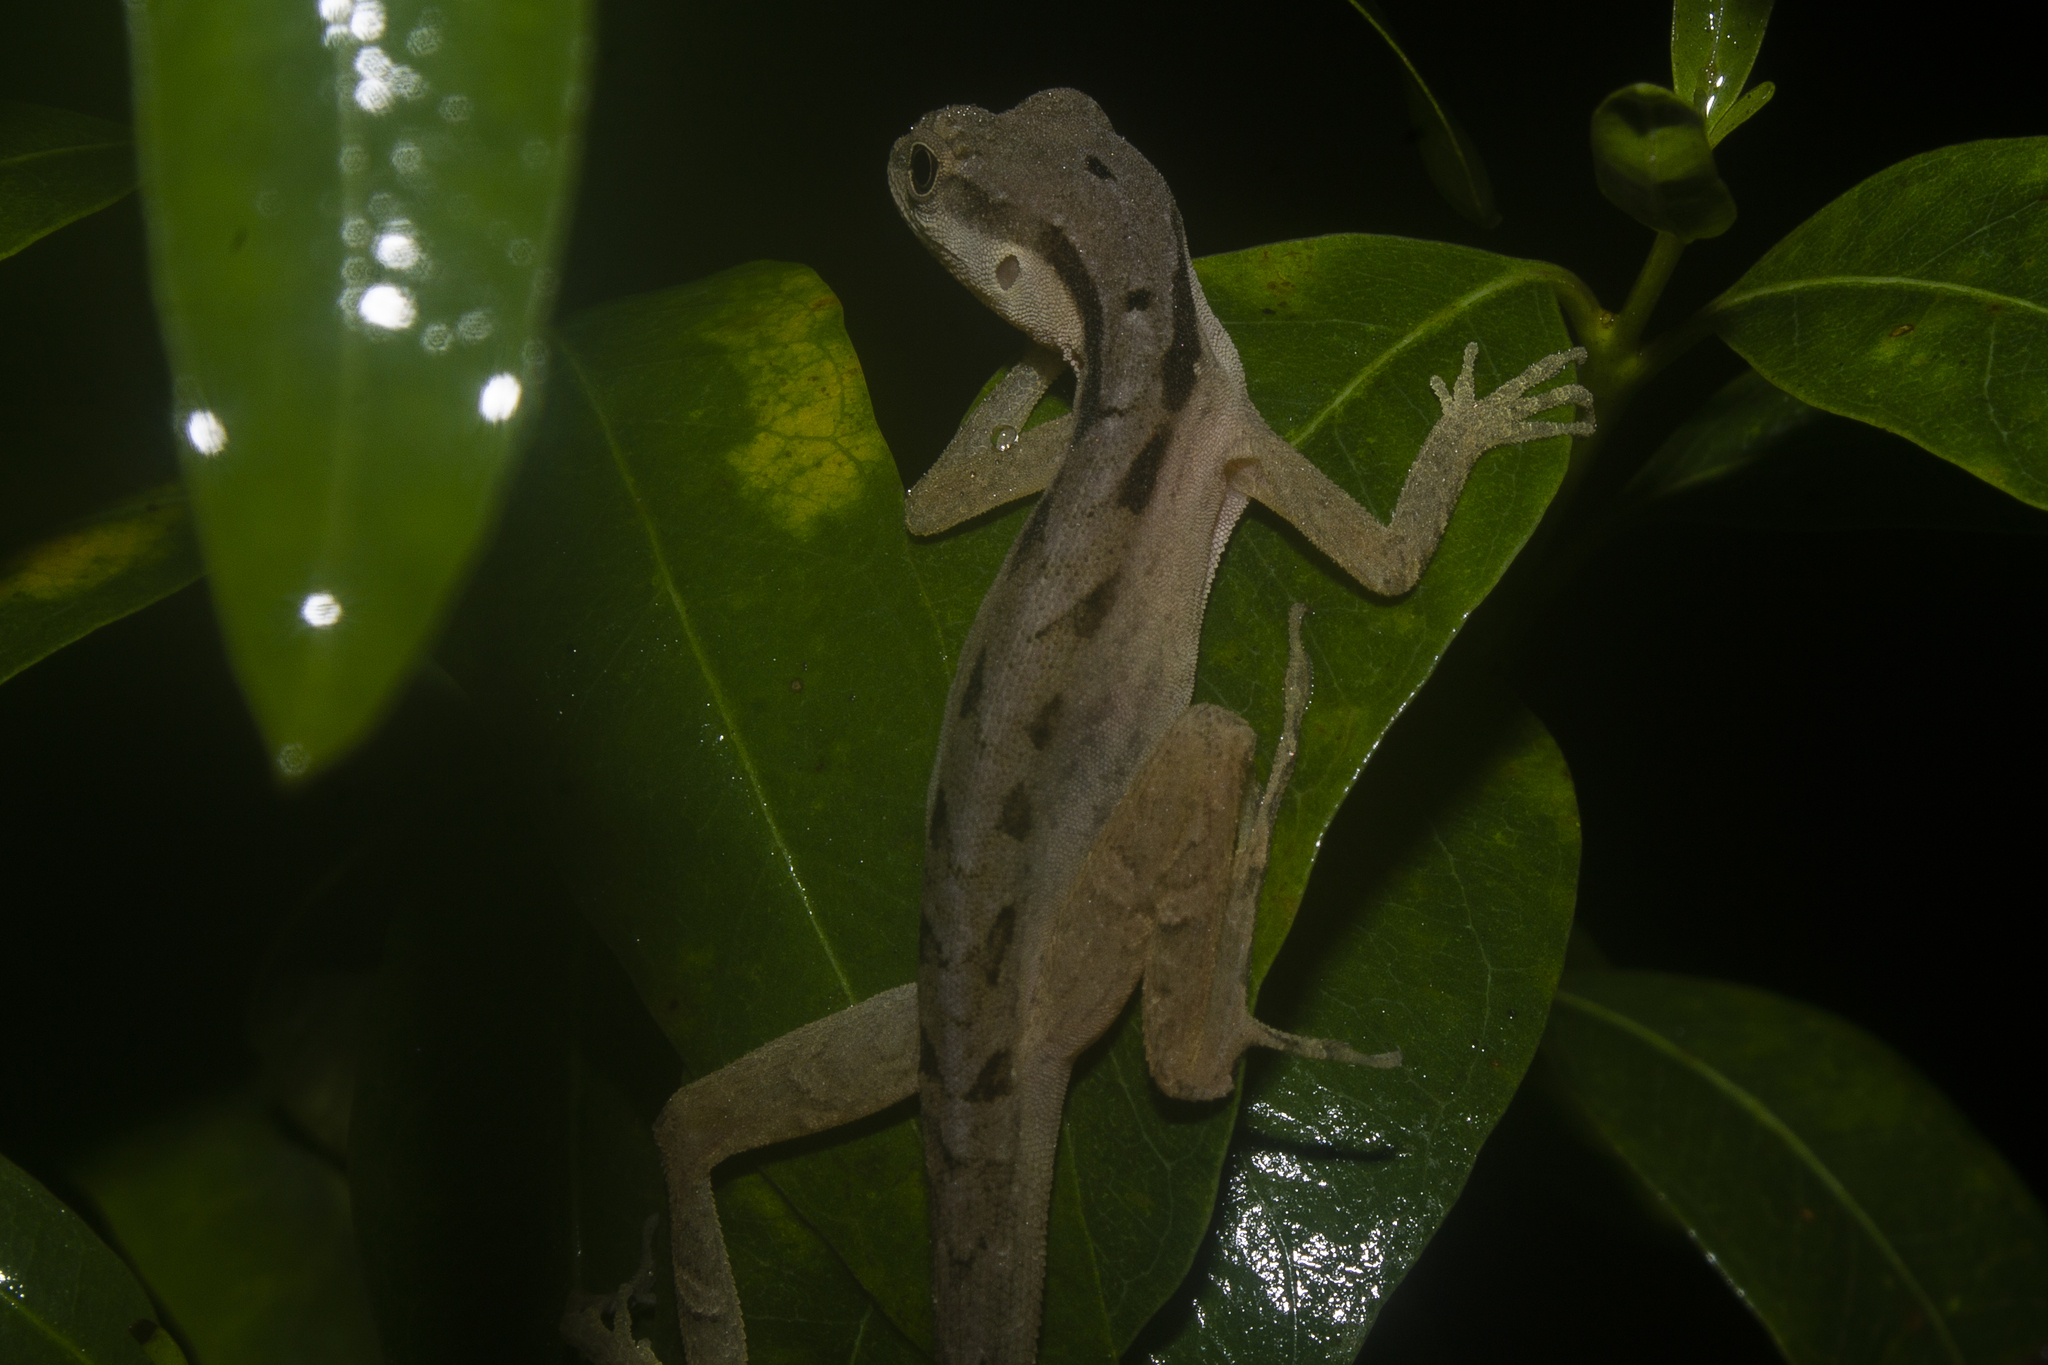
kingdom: Animalia
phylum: Chordata
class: Squamata
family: Dactyloidae
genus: Anolis
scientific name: Anolis gaigei
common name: Gaige’s anole
